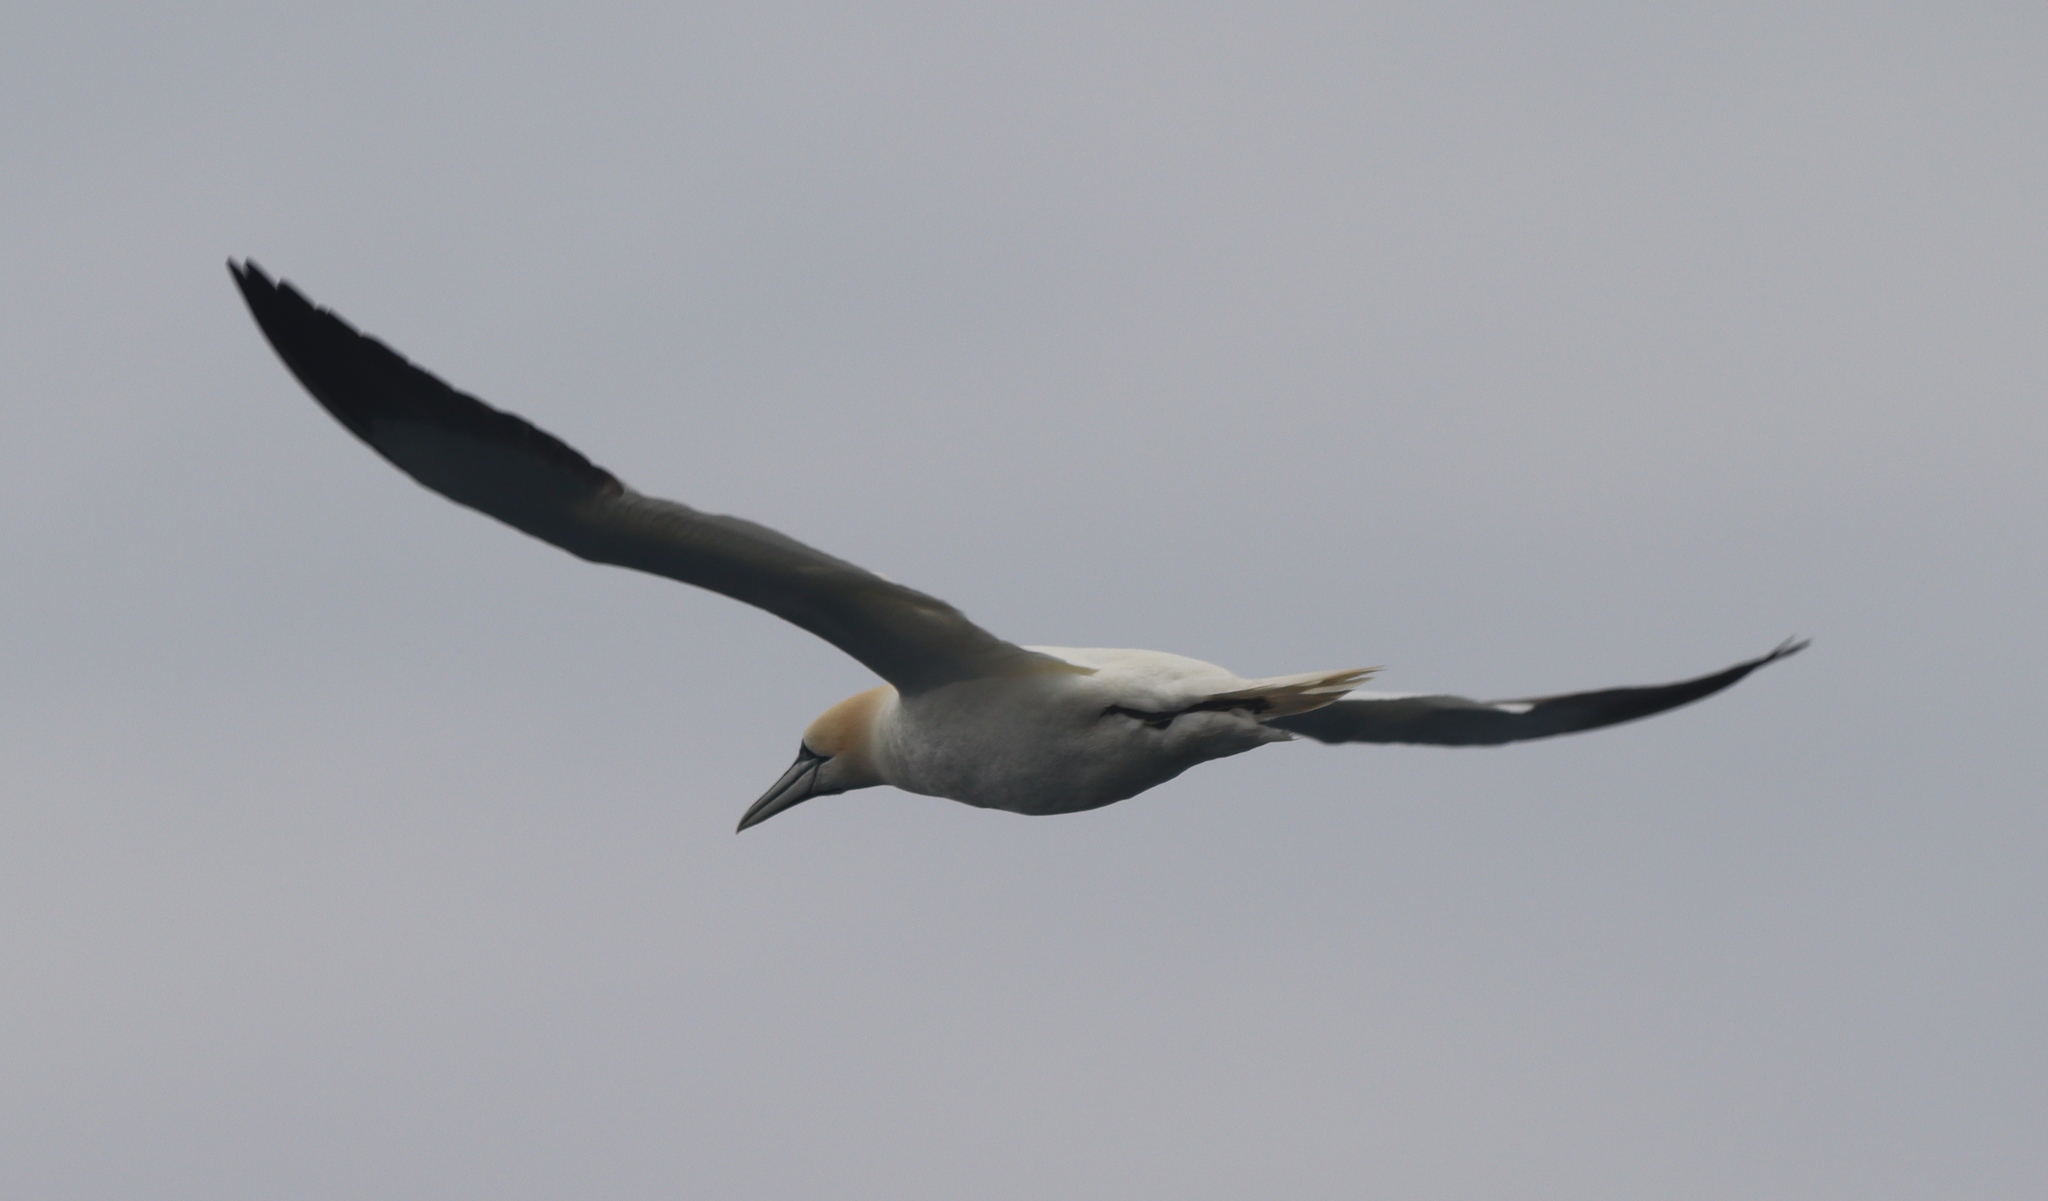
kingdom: Animalia
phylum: Chordata
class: Aves
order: Suliformes
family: Sulidae
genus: Morus
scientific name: Morus bassanus
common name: Northern gannet
